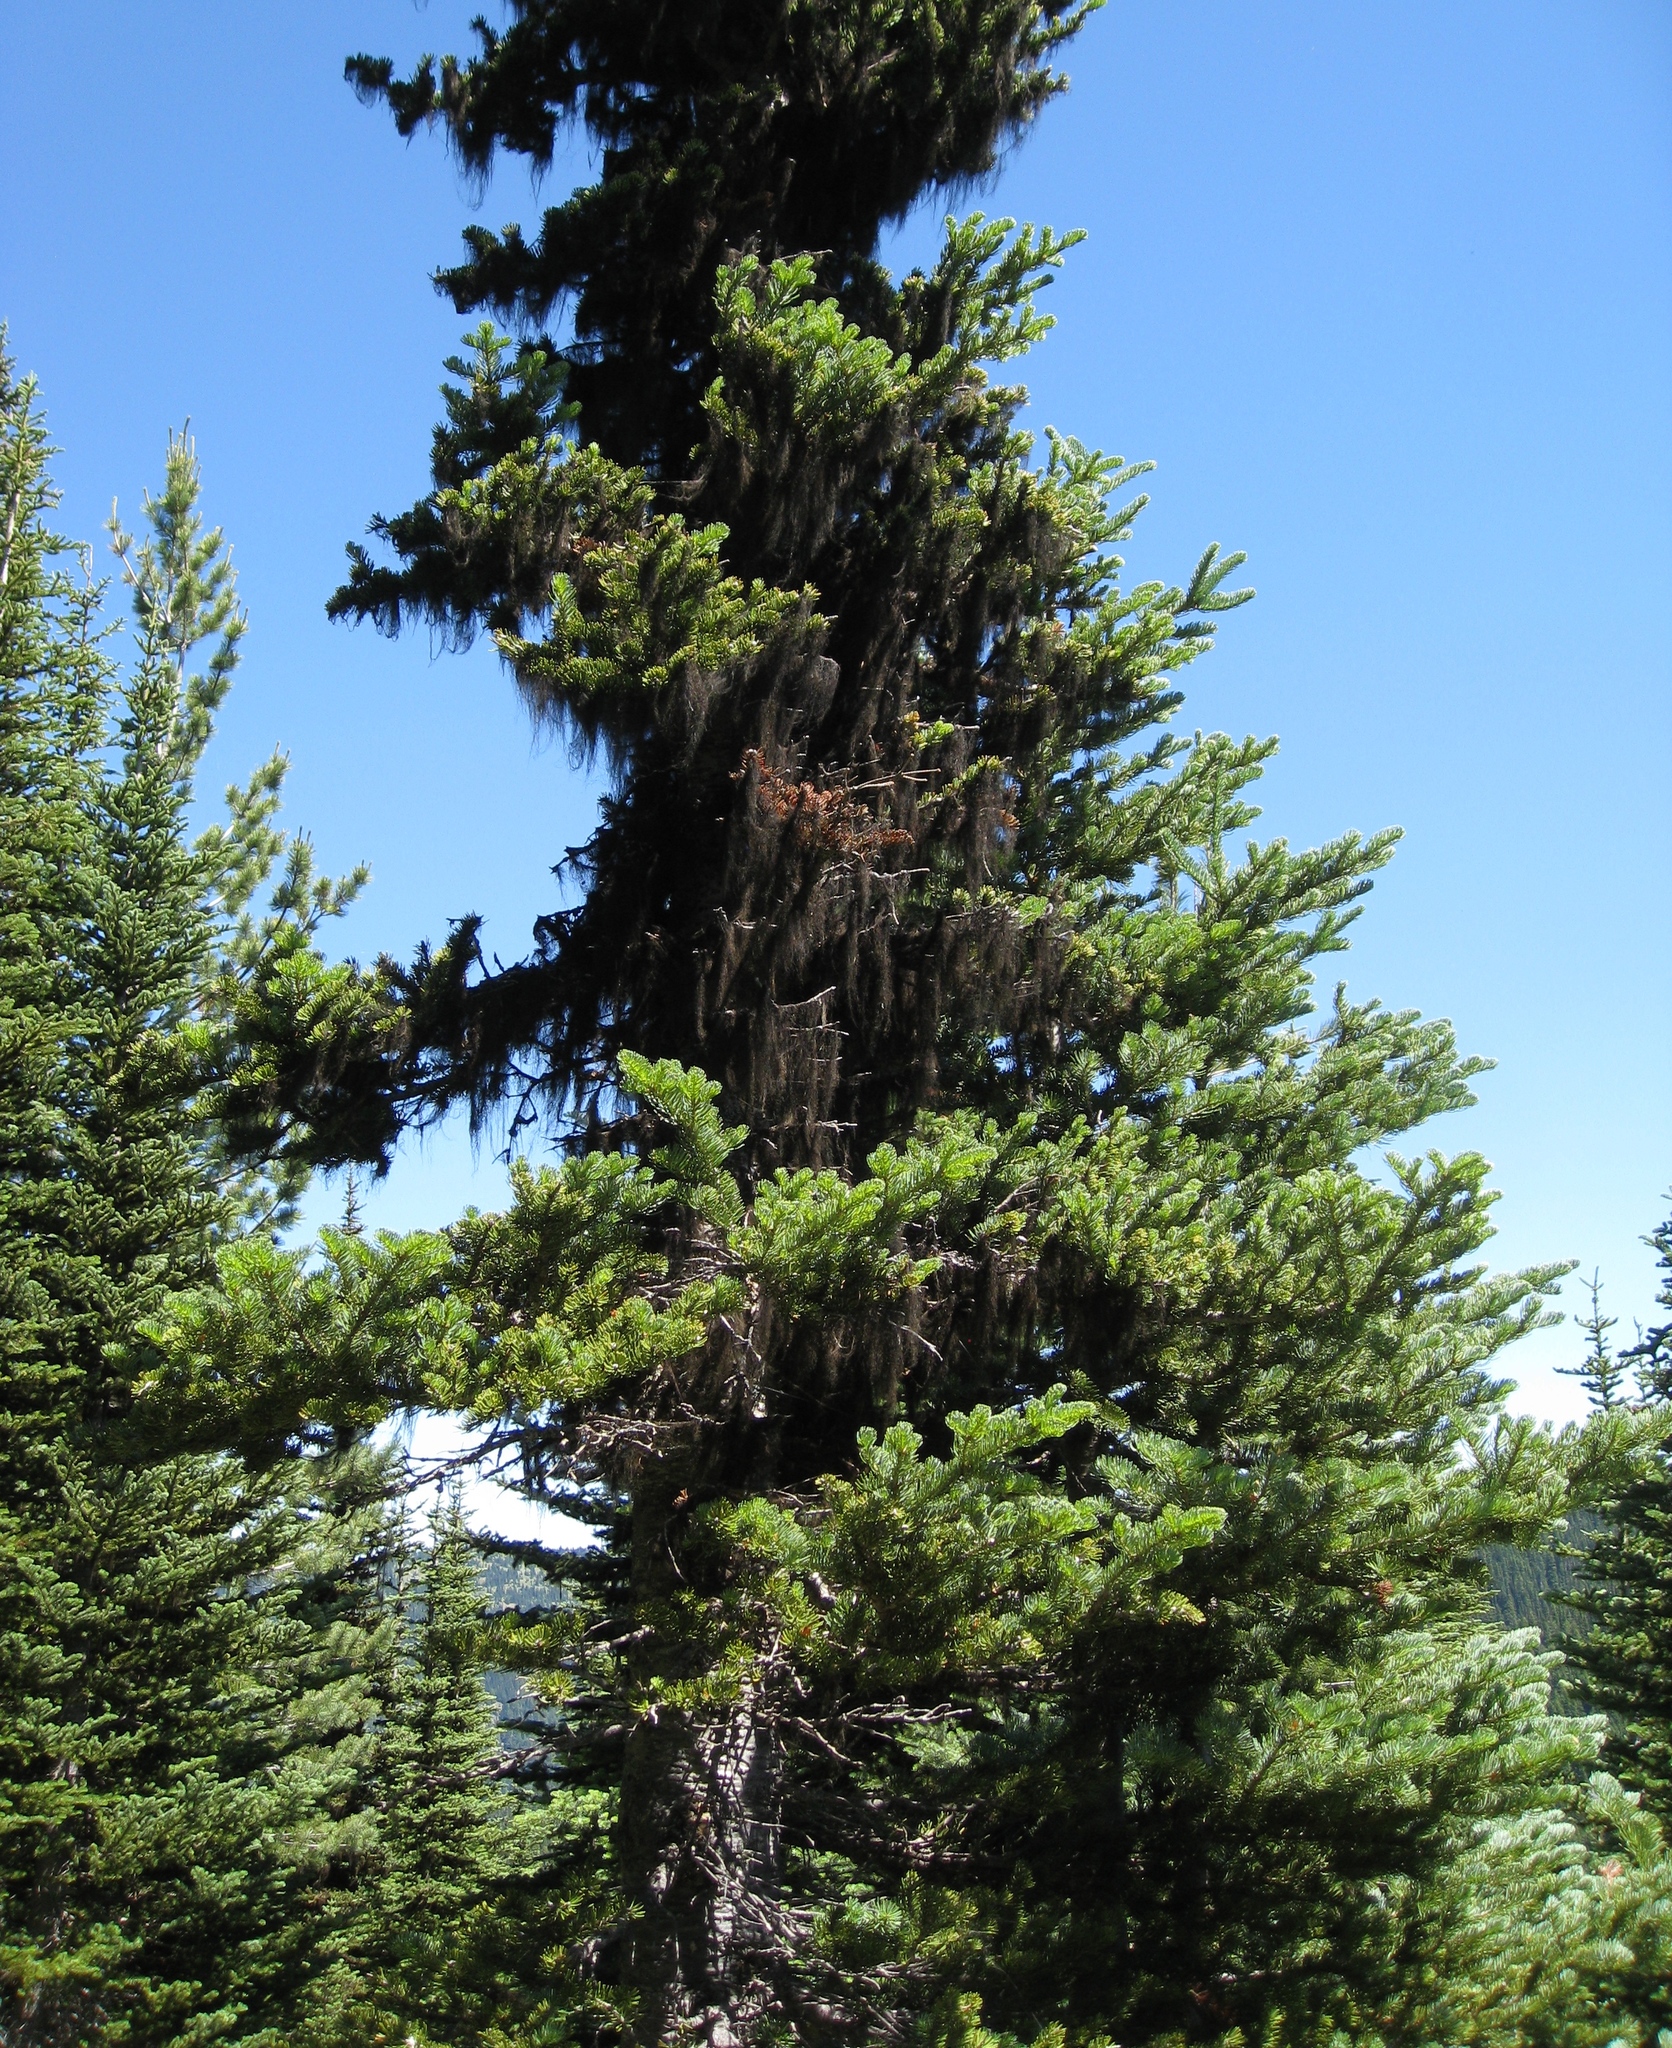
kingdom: Plantae
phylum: Tracheophyta
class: Pinopsida
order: Pinales
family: Pinaceae
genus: Abies
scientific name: Abies lasiocarpa
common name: Subalpine fir
